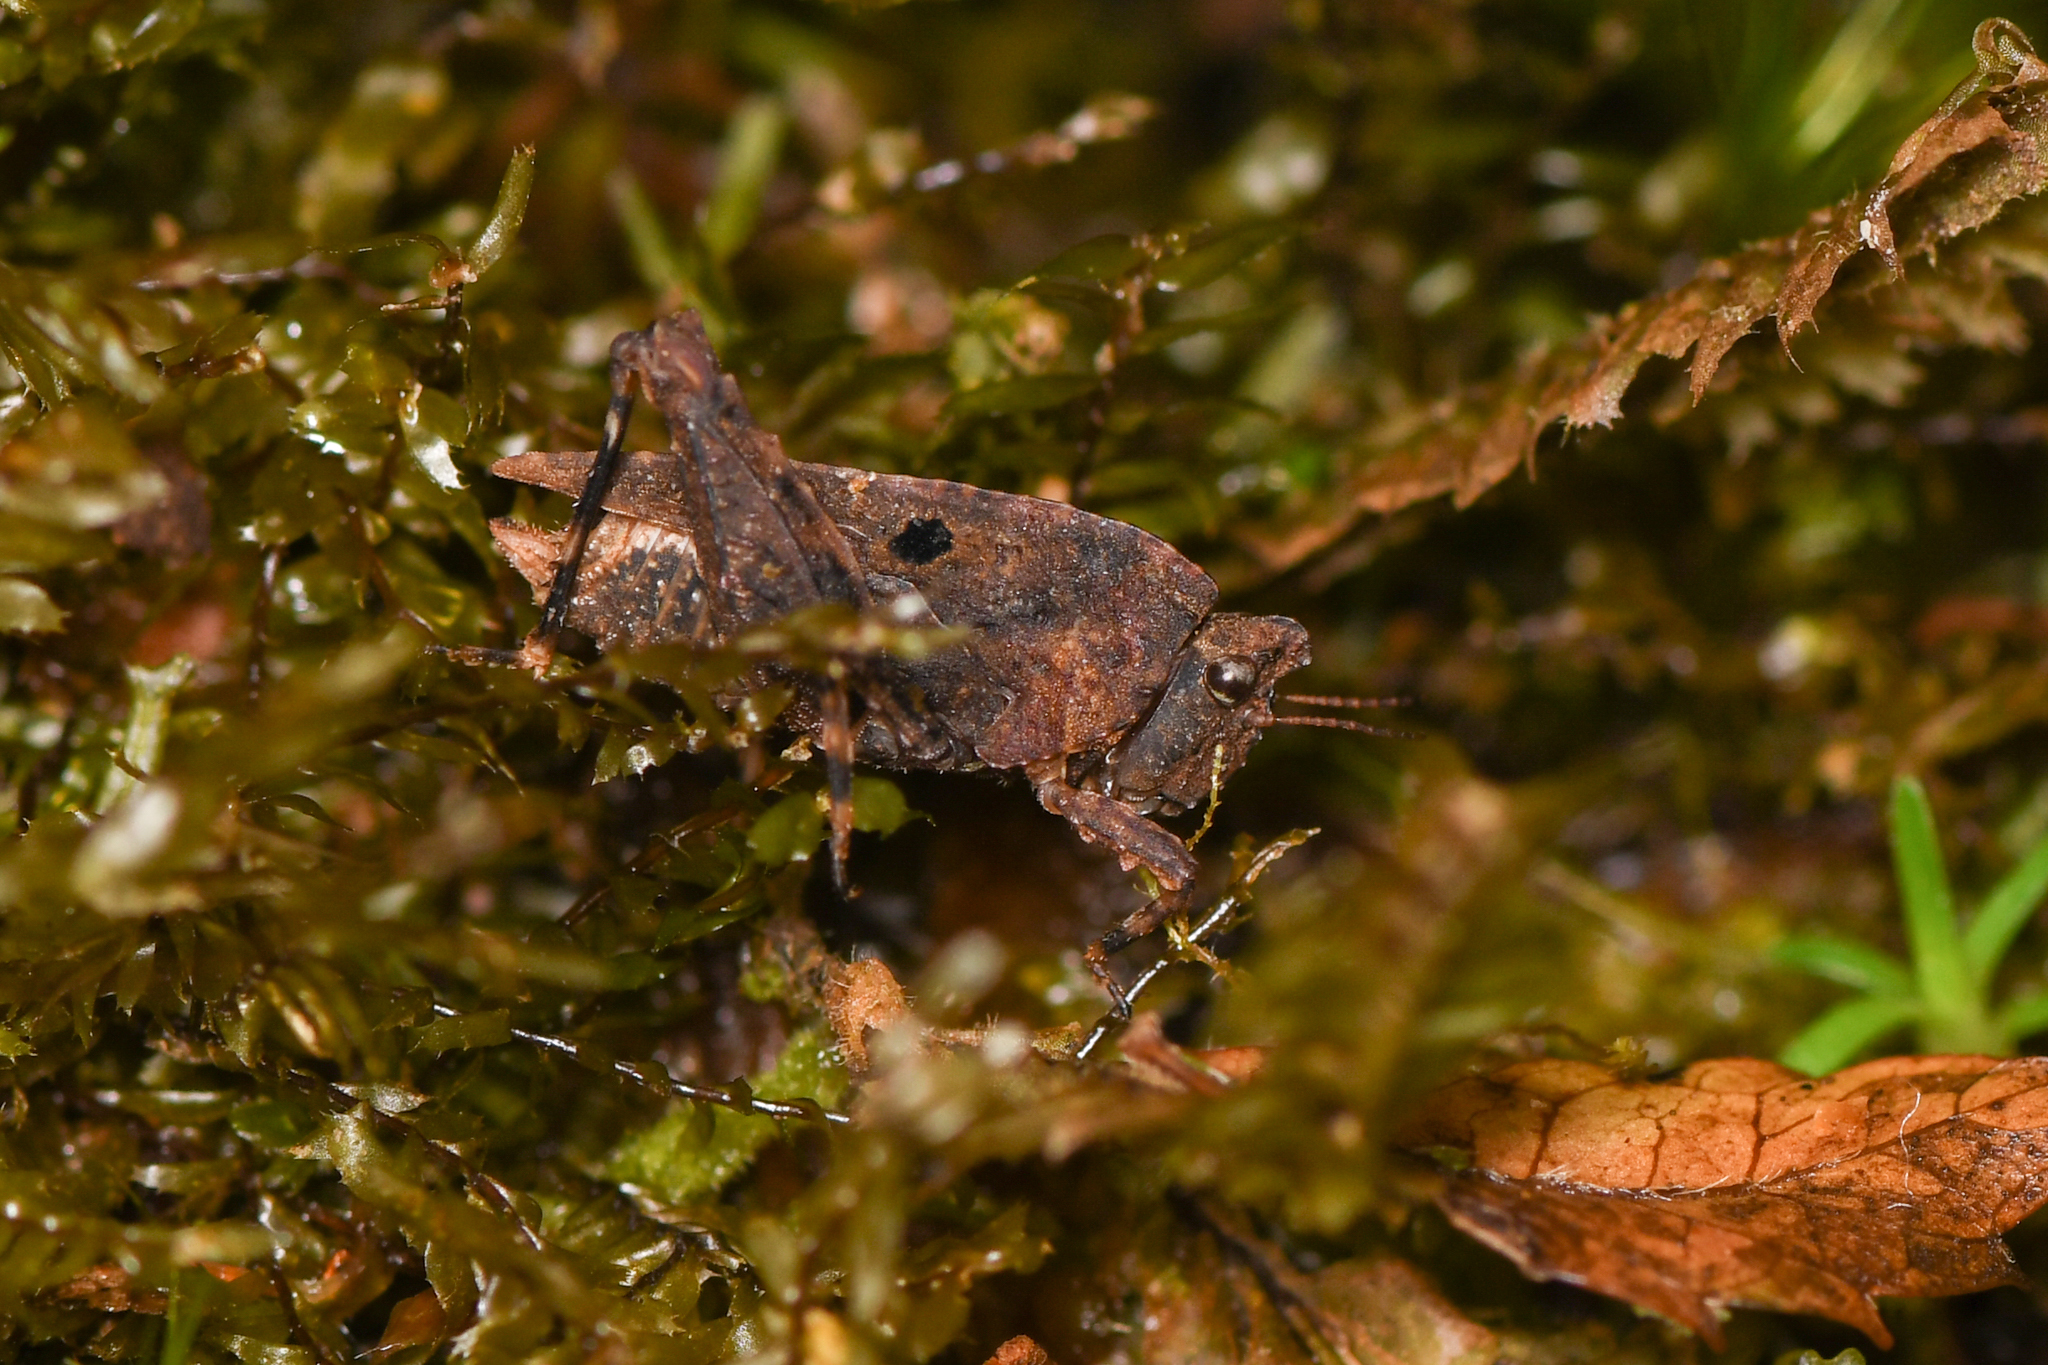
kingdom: Animalia
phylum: Arthropoda
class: Insecta
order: Orthoptera
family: Tetrigidae
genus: Metrodora
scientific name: Metrodora
